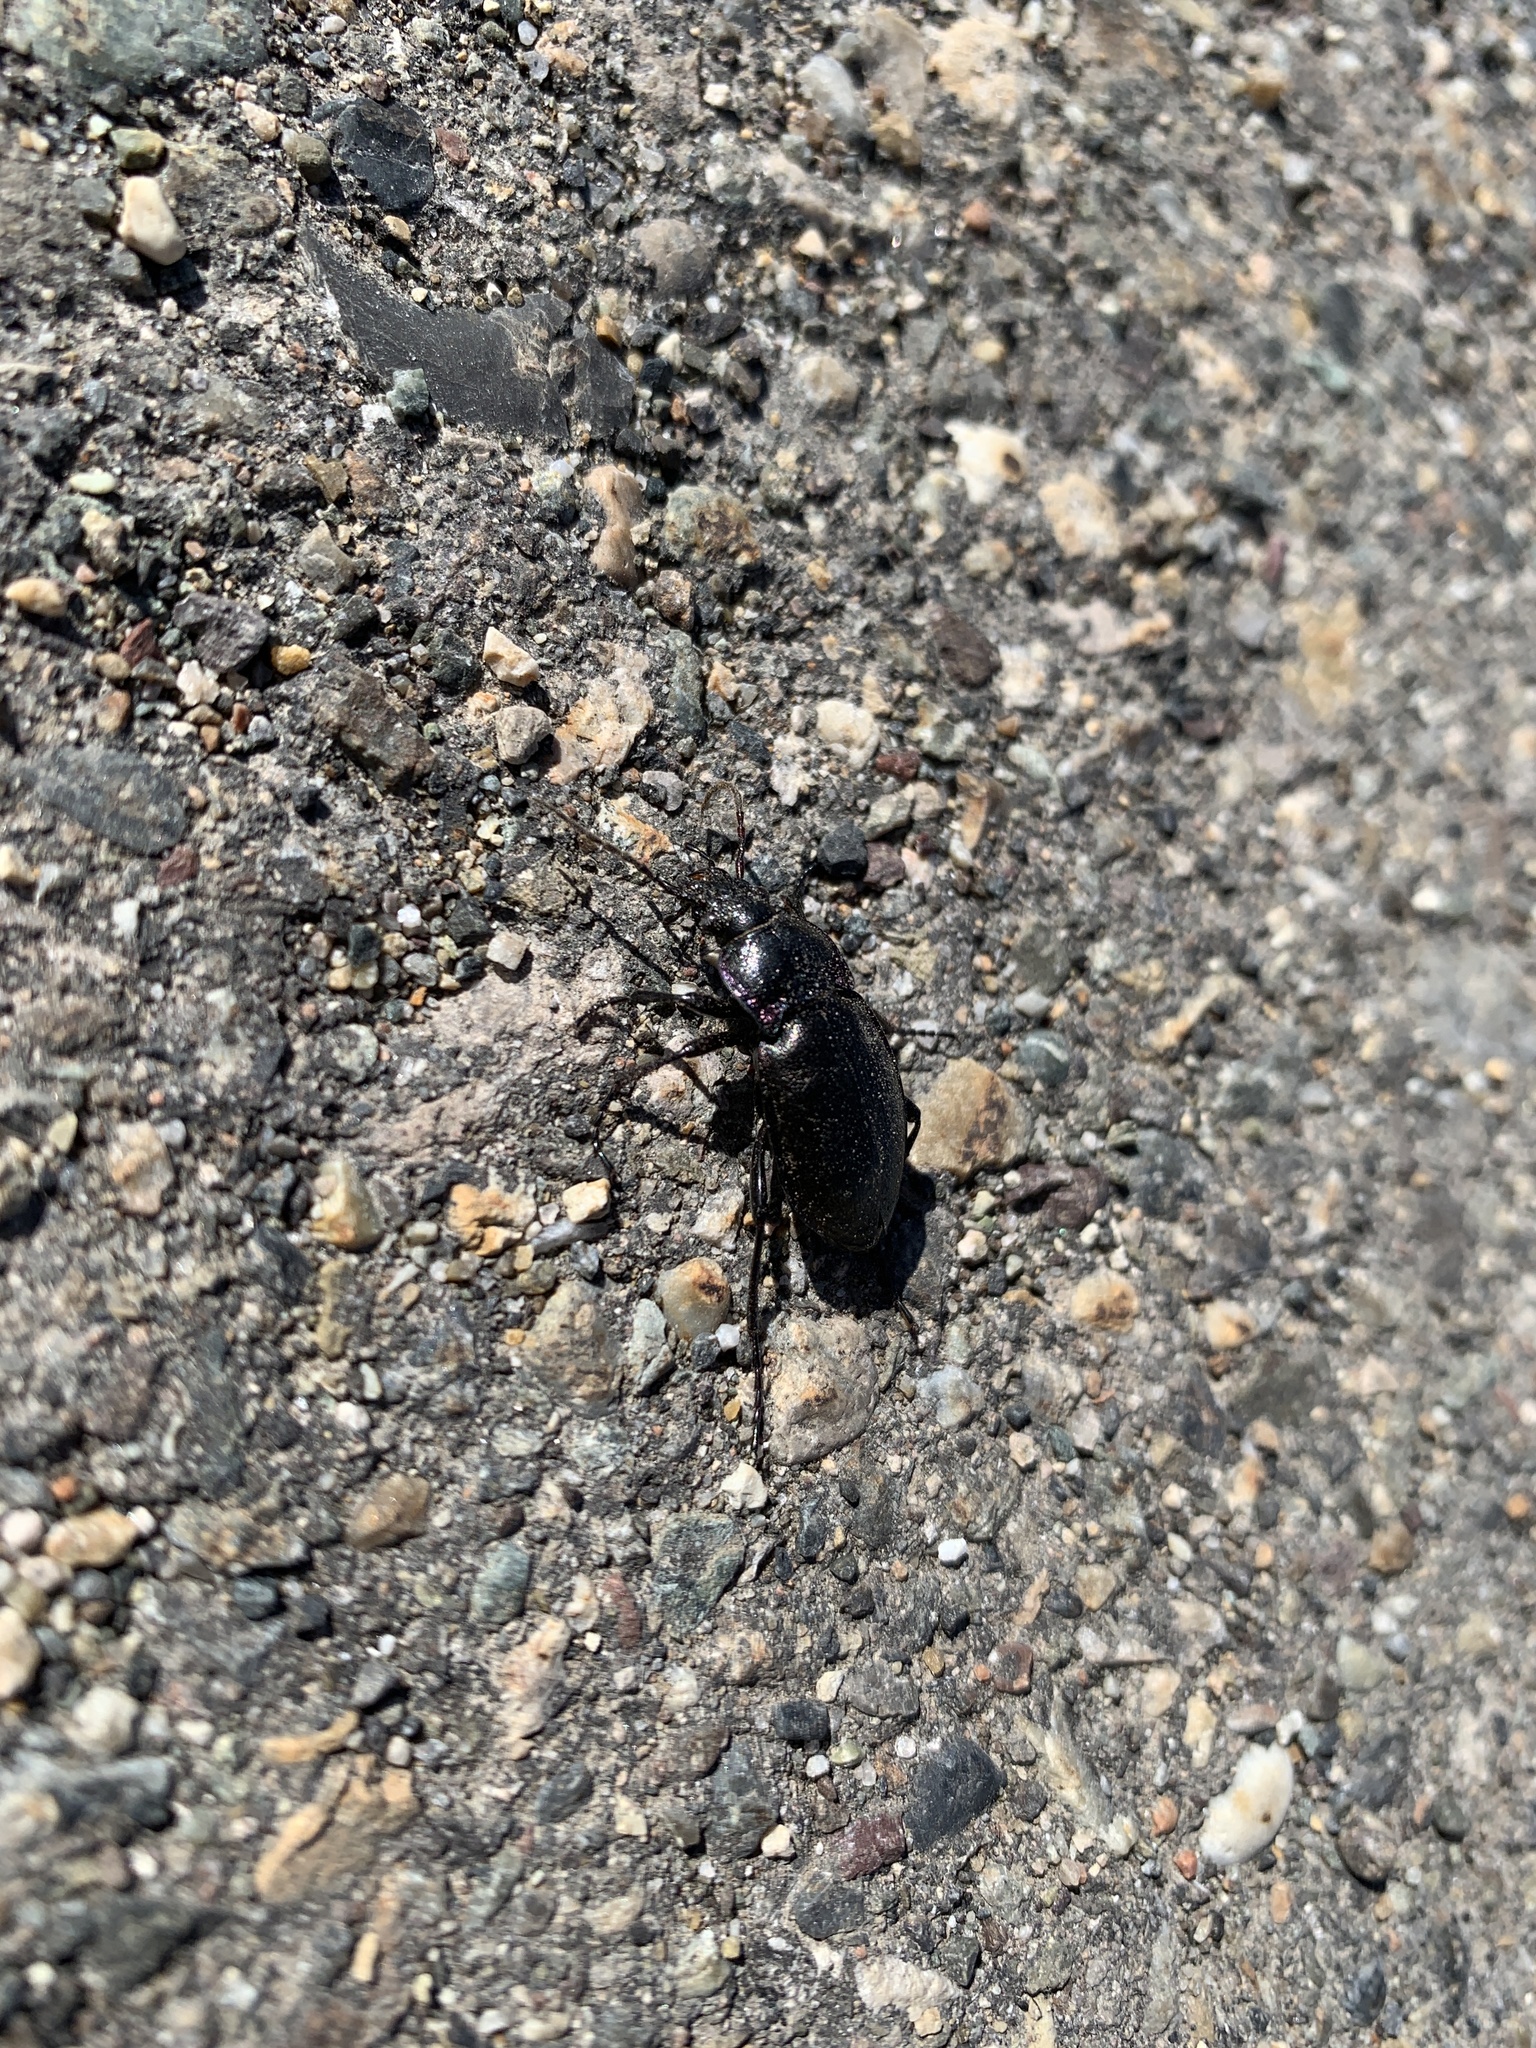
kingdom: Animalia
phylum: Arthropoda
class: Insecta
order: Coleoptera
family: Carabidae
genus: Carabus
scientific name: Carabus nemoralis
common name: European ground beetle
